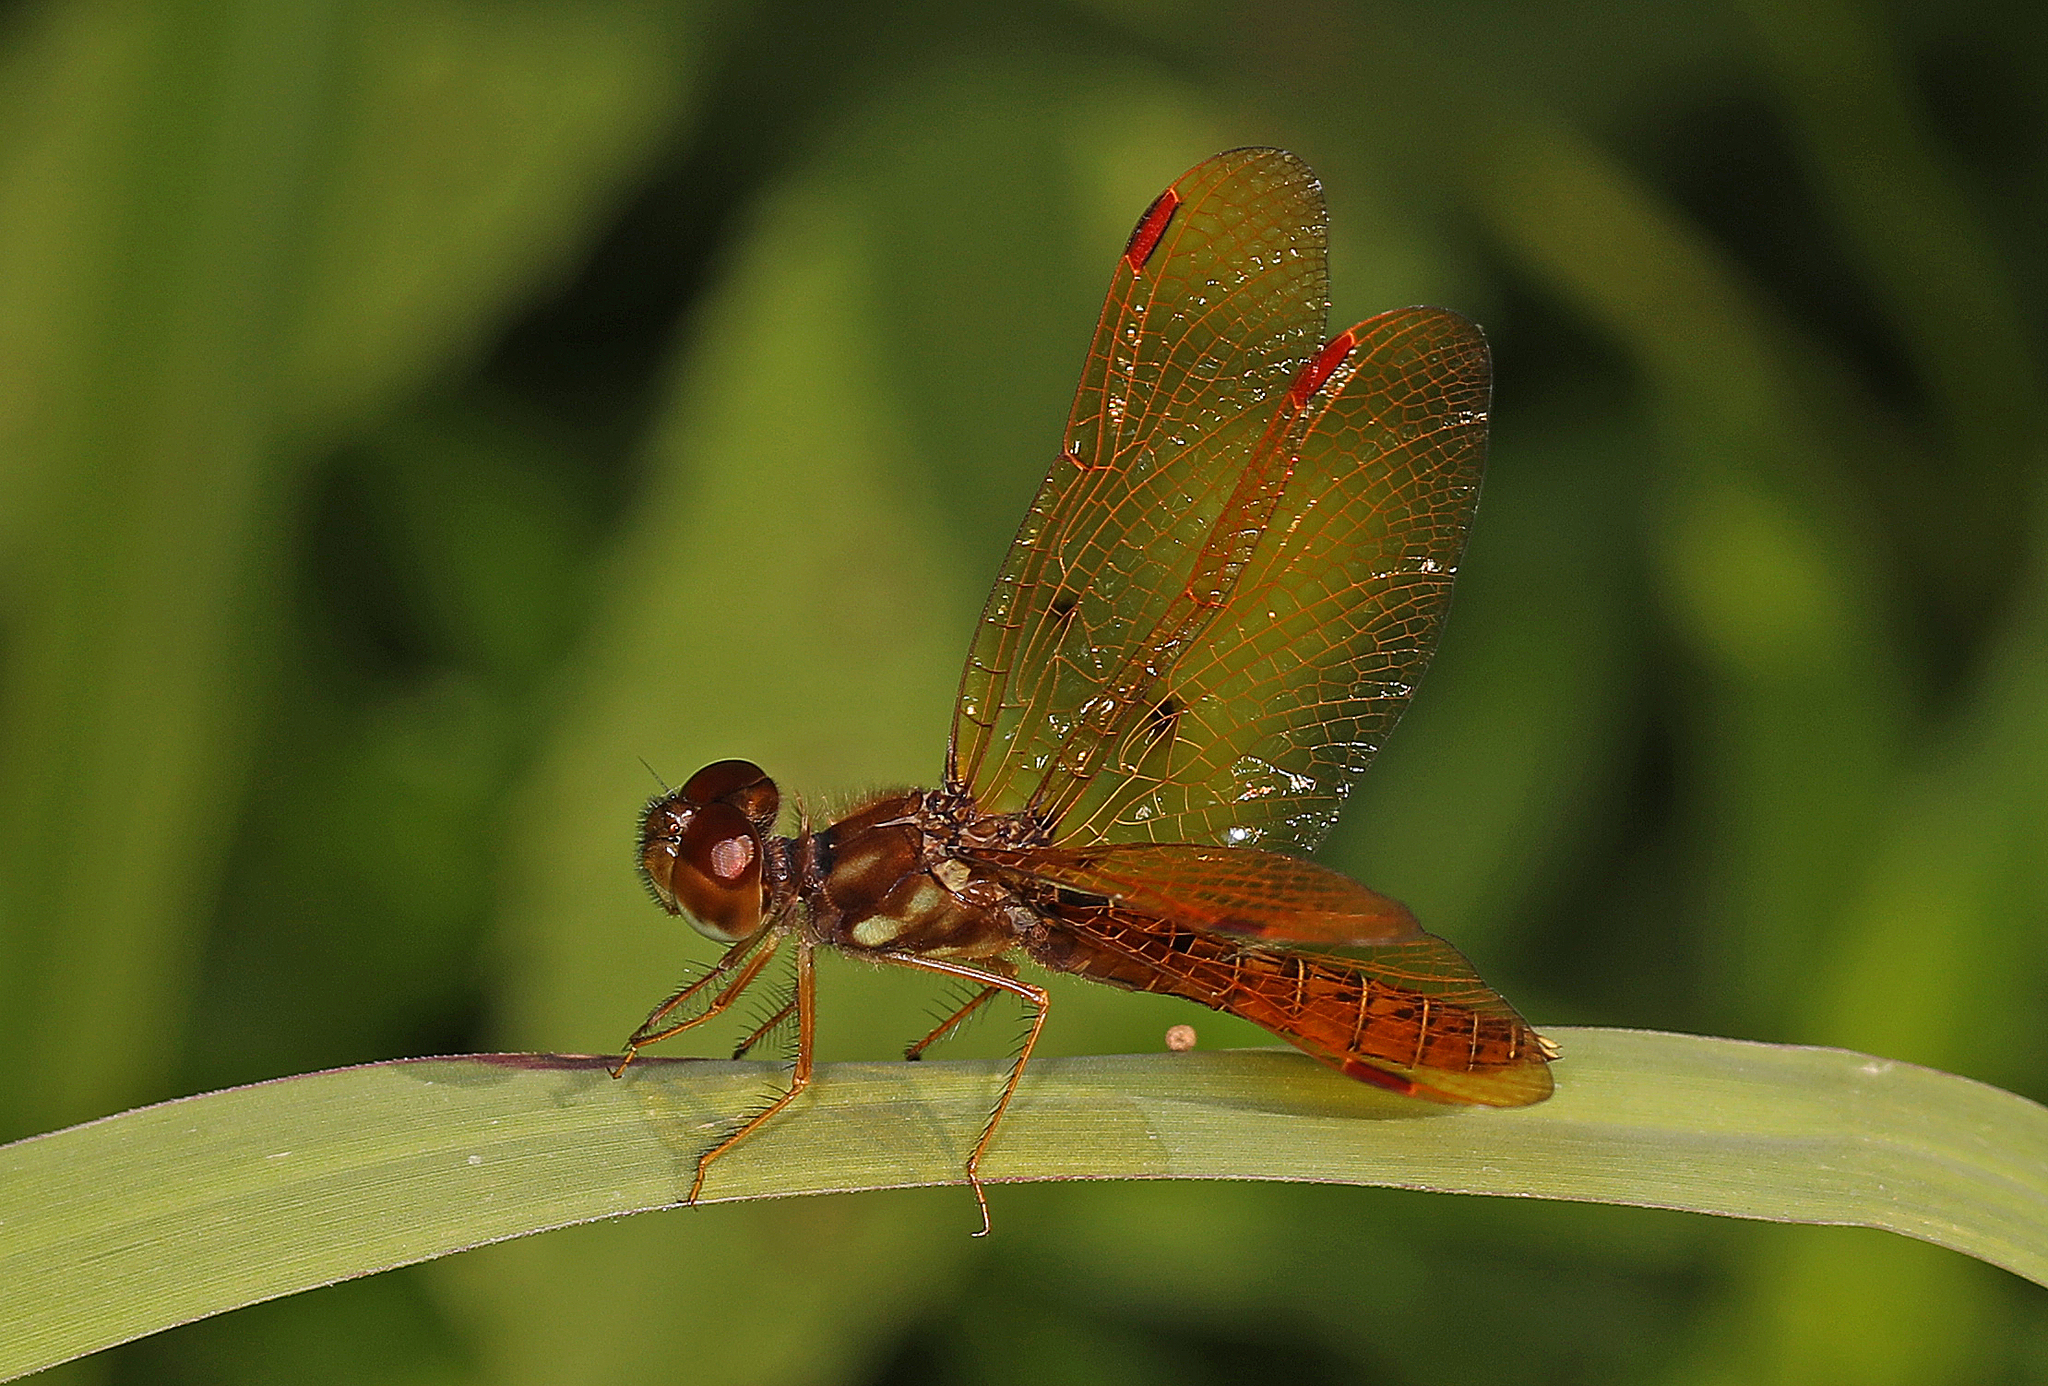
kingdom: Animalia
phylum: Arthropoda
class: Insecta
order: Odonata
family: Libellulidae
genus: Perithemis
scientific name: Perithemis tenera
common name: Eastern amberwing
